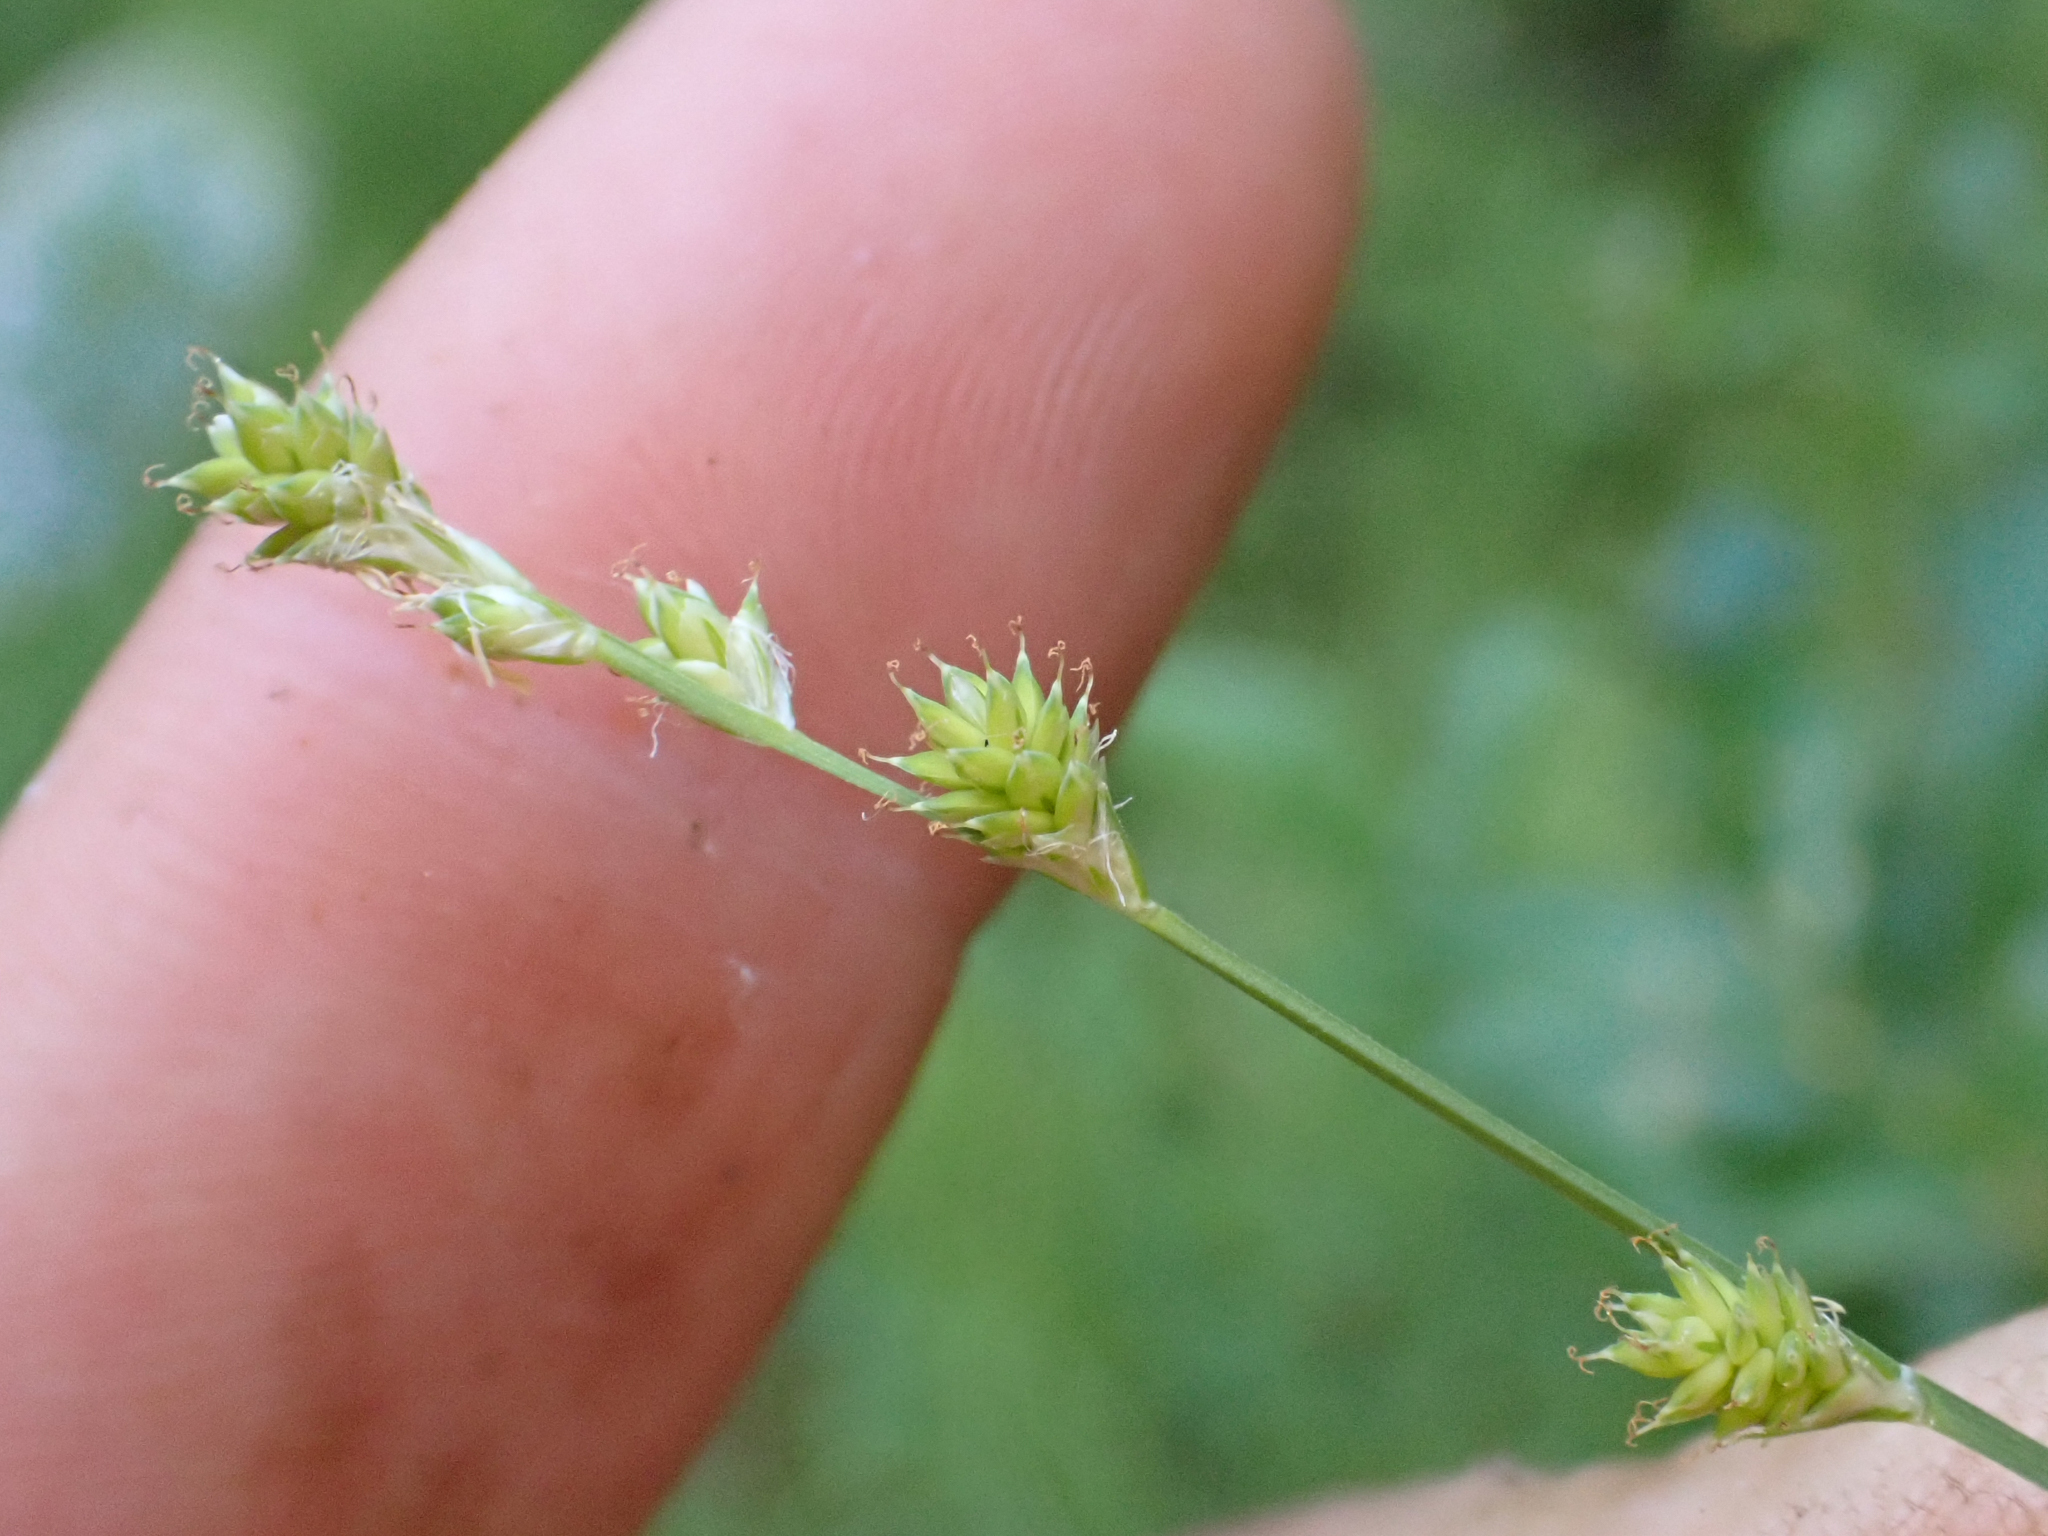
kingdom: Plantae
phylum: Tracheophyta
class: Liliopsida
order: Poales
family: Cyperaceae
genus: Carex
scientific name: Carex brunnescens
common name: Brown sedge
